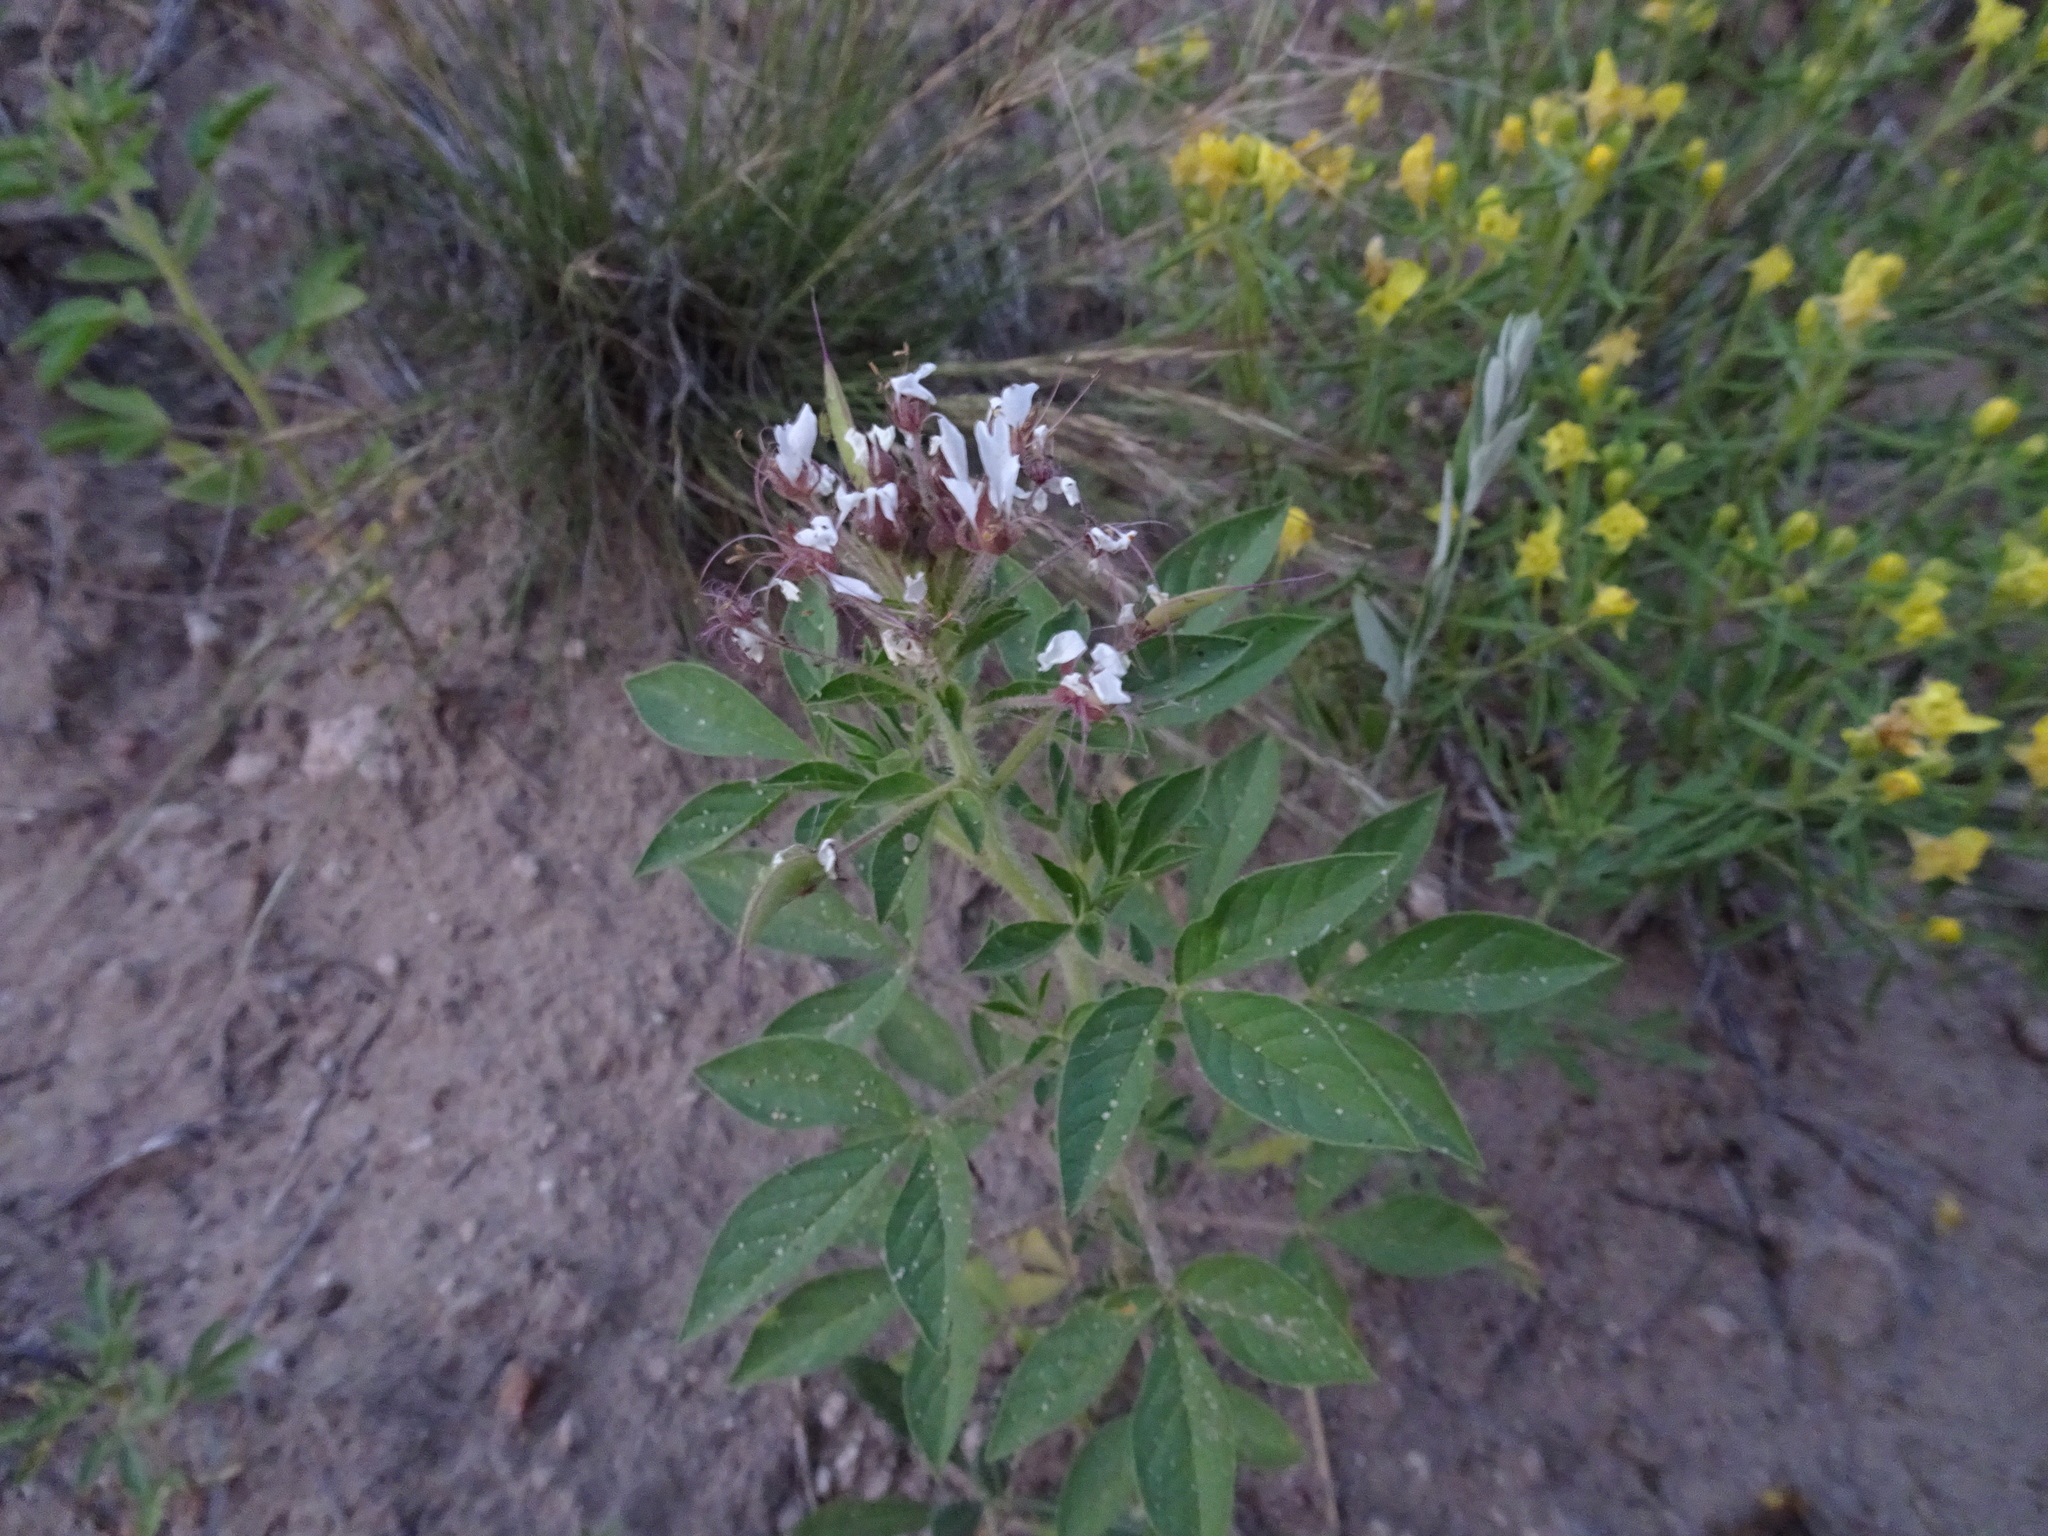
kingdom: Plantae
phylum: Tracheophyta
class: Magnoliopsida
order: Brassicales
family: Cleomaceae
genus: Polanisia
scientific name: Polanisia dodecandra
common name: Clammyweed
